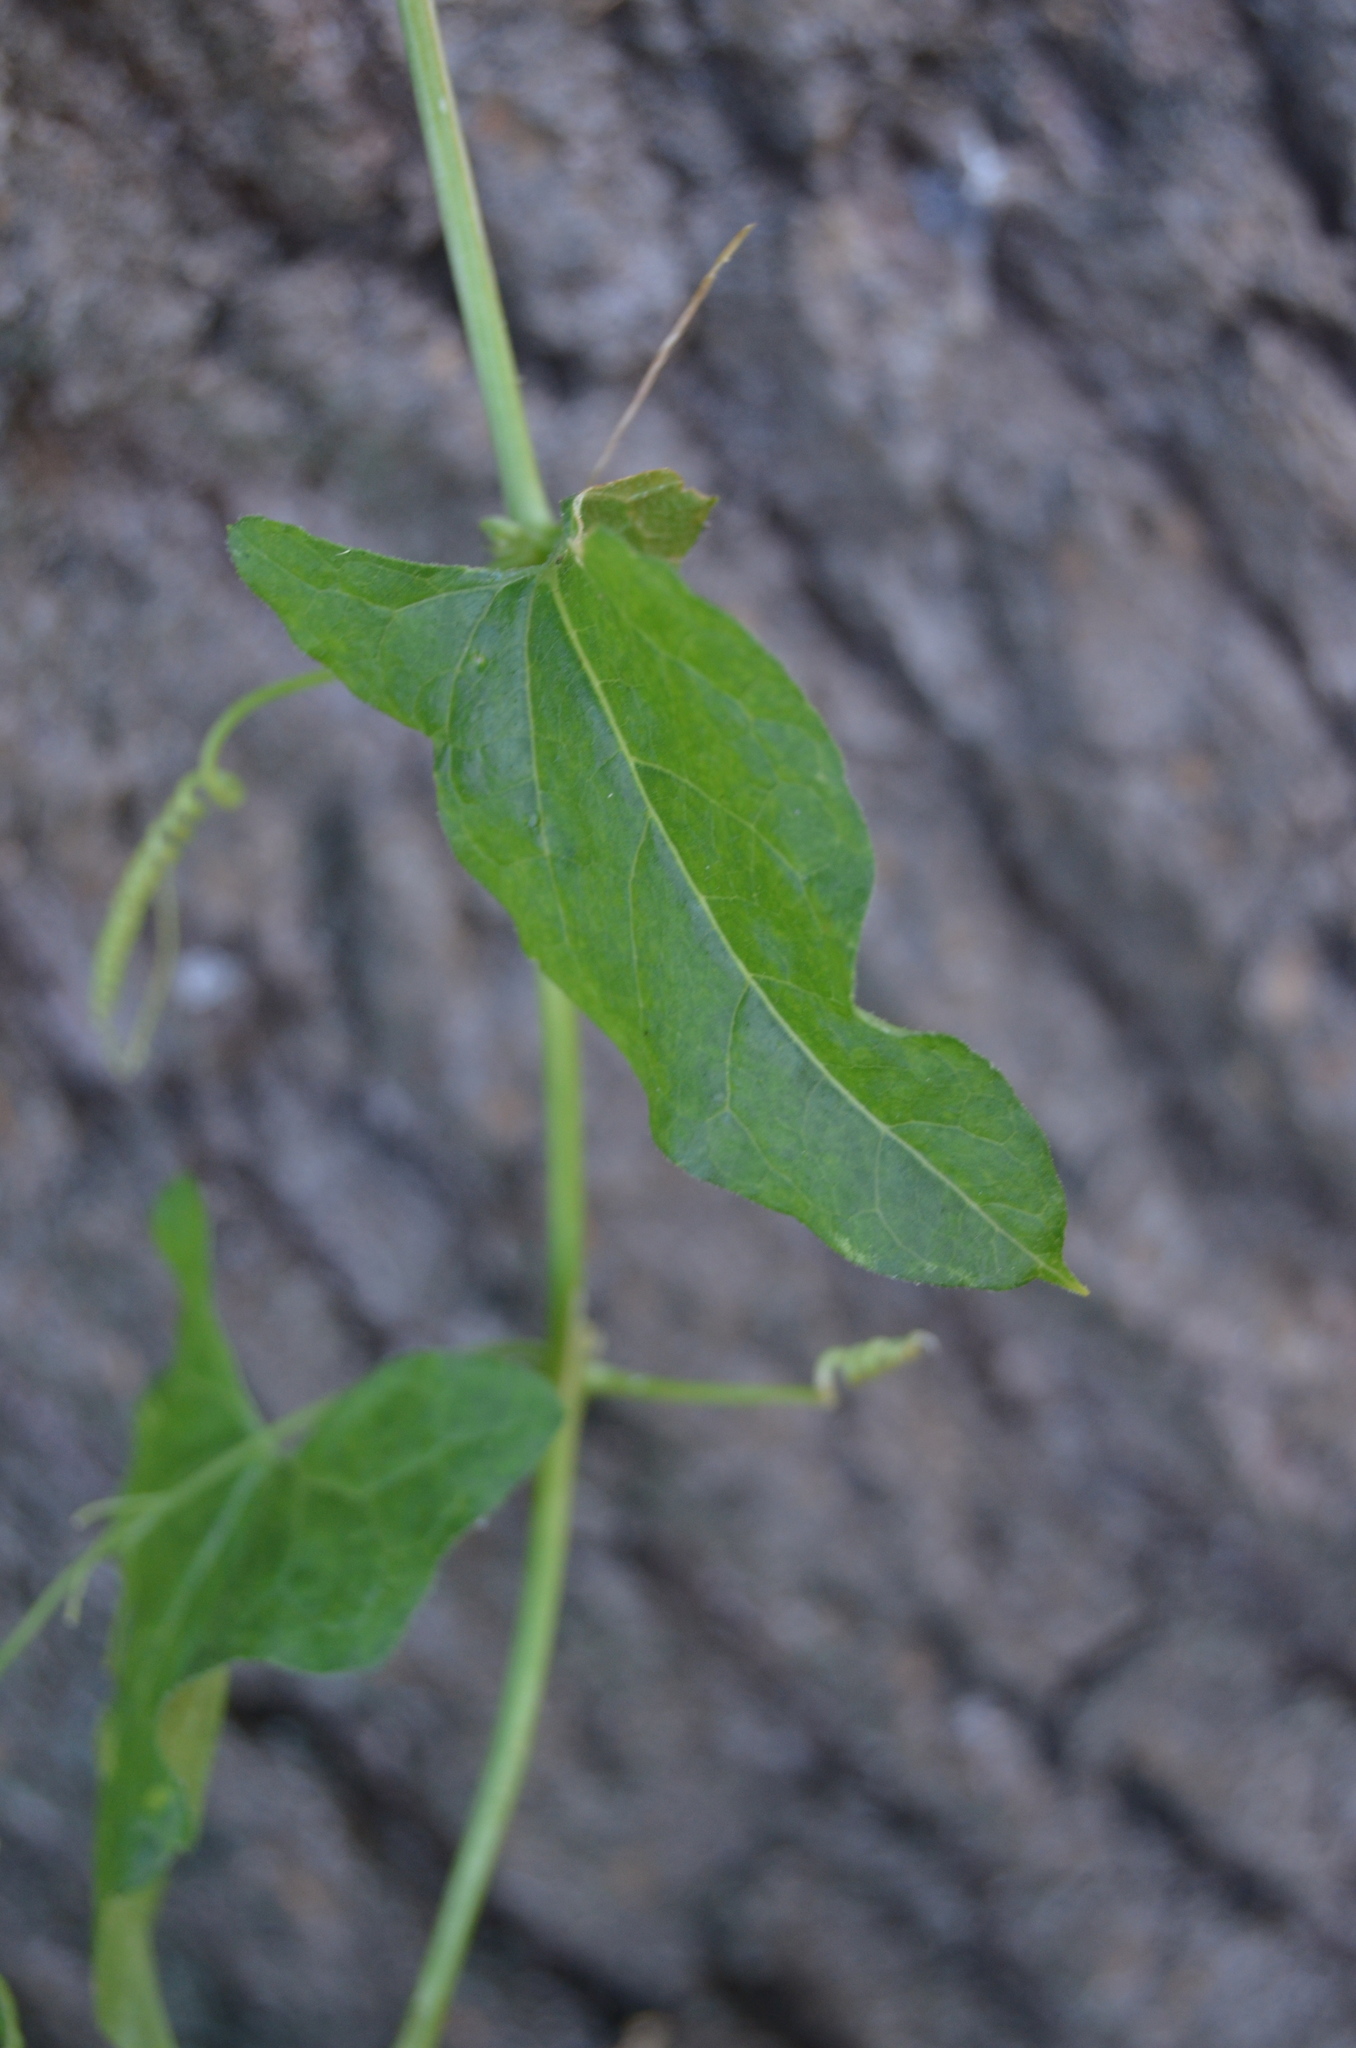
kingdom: Plantae
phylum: Tracheophyta
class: Magnoliopsida
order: Cucurbitales
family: Cucurbitaceae
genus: Bryonia
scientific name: Bryonia cretica
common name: Cretan bryony
